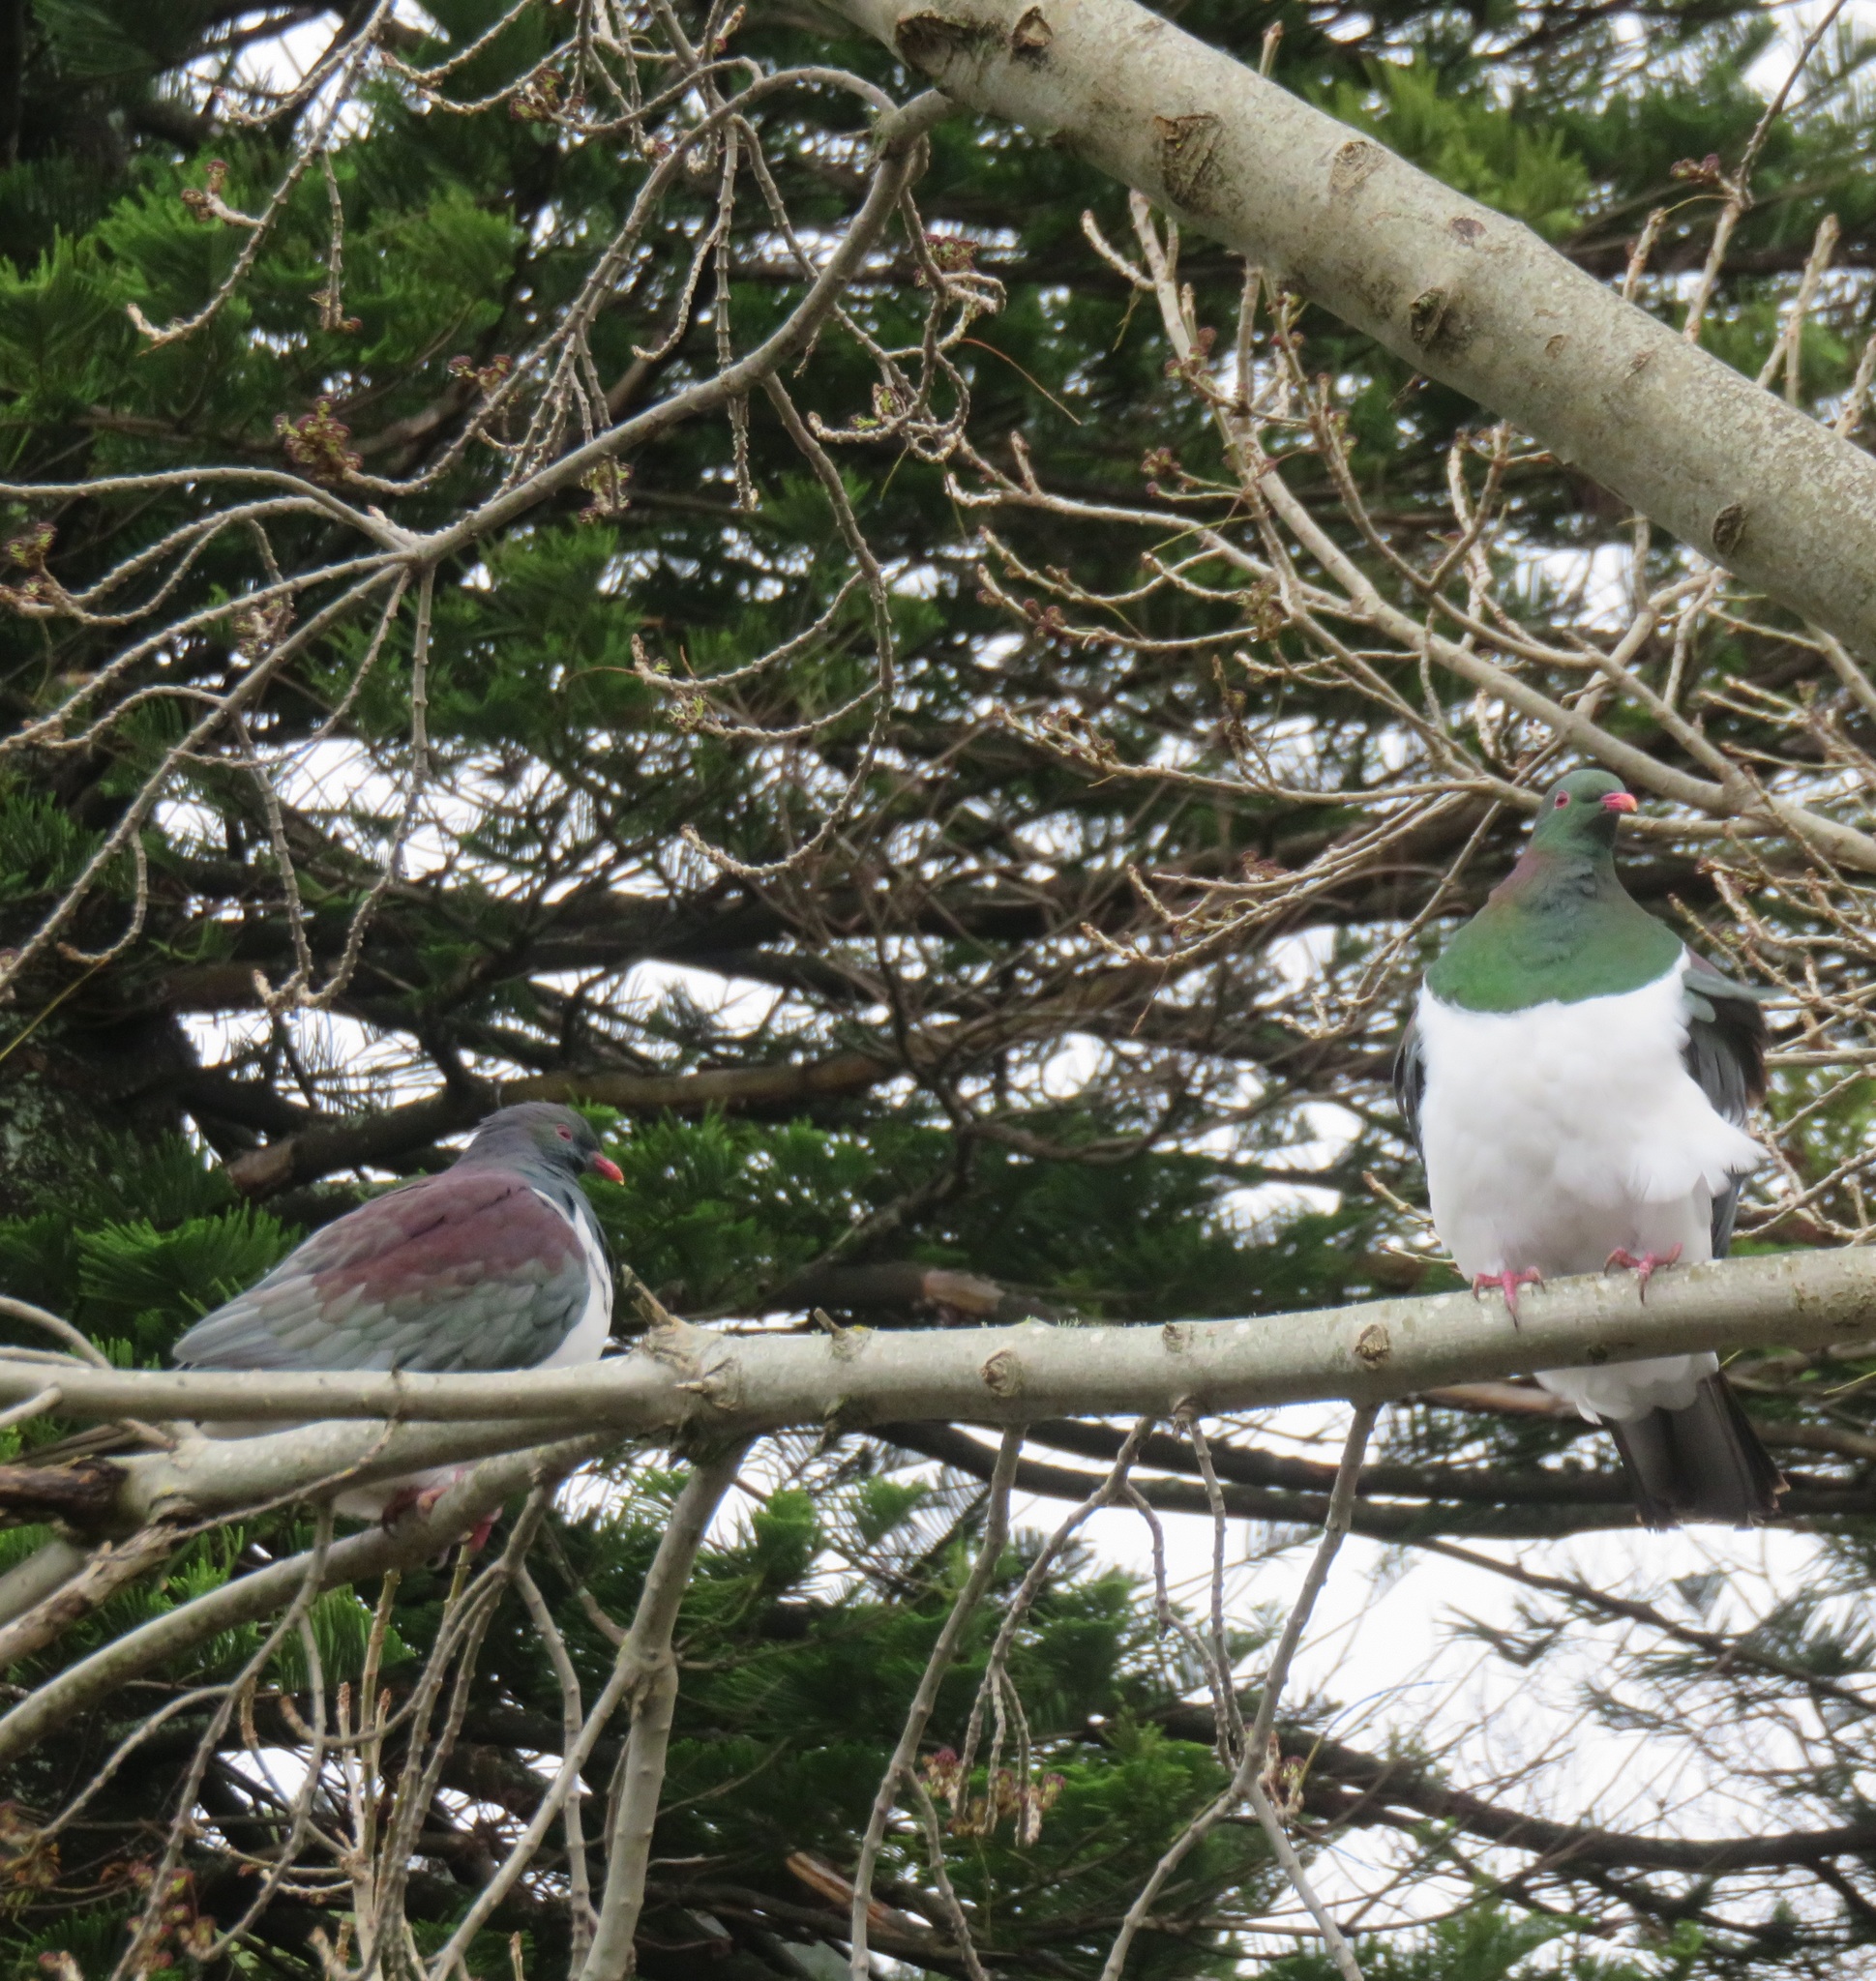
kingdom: Animalia
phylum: Chordata
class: Aves
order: Columbiformes
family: Columbidae
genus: Hemiphaga
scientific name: Hemiphaga novaeseelandiae
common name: New zealand pigeon
